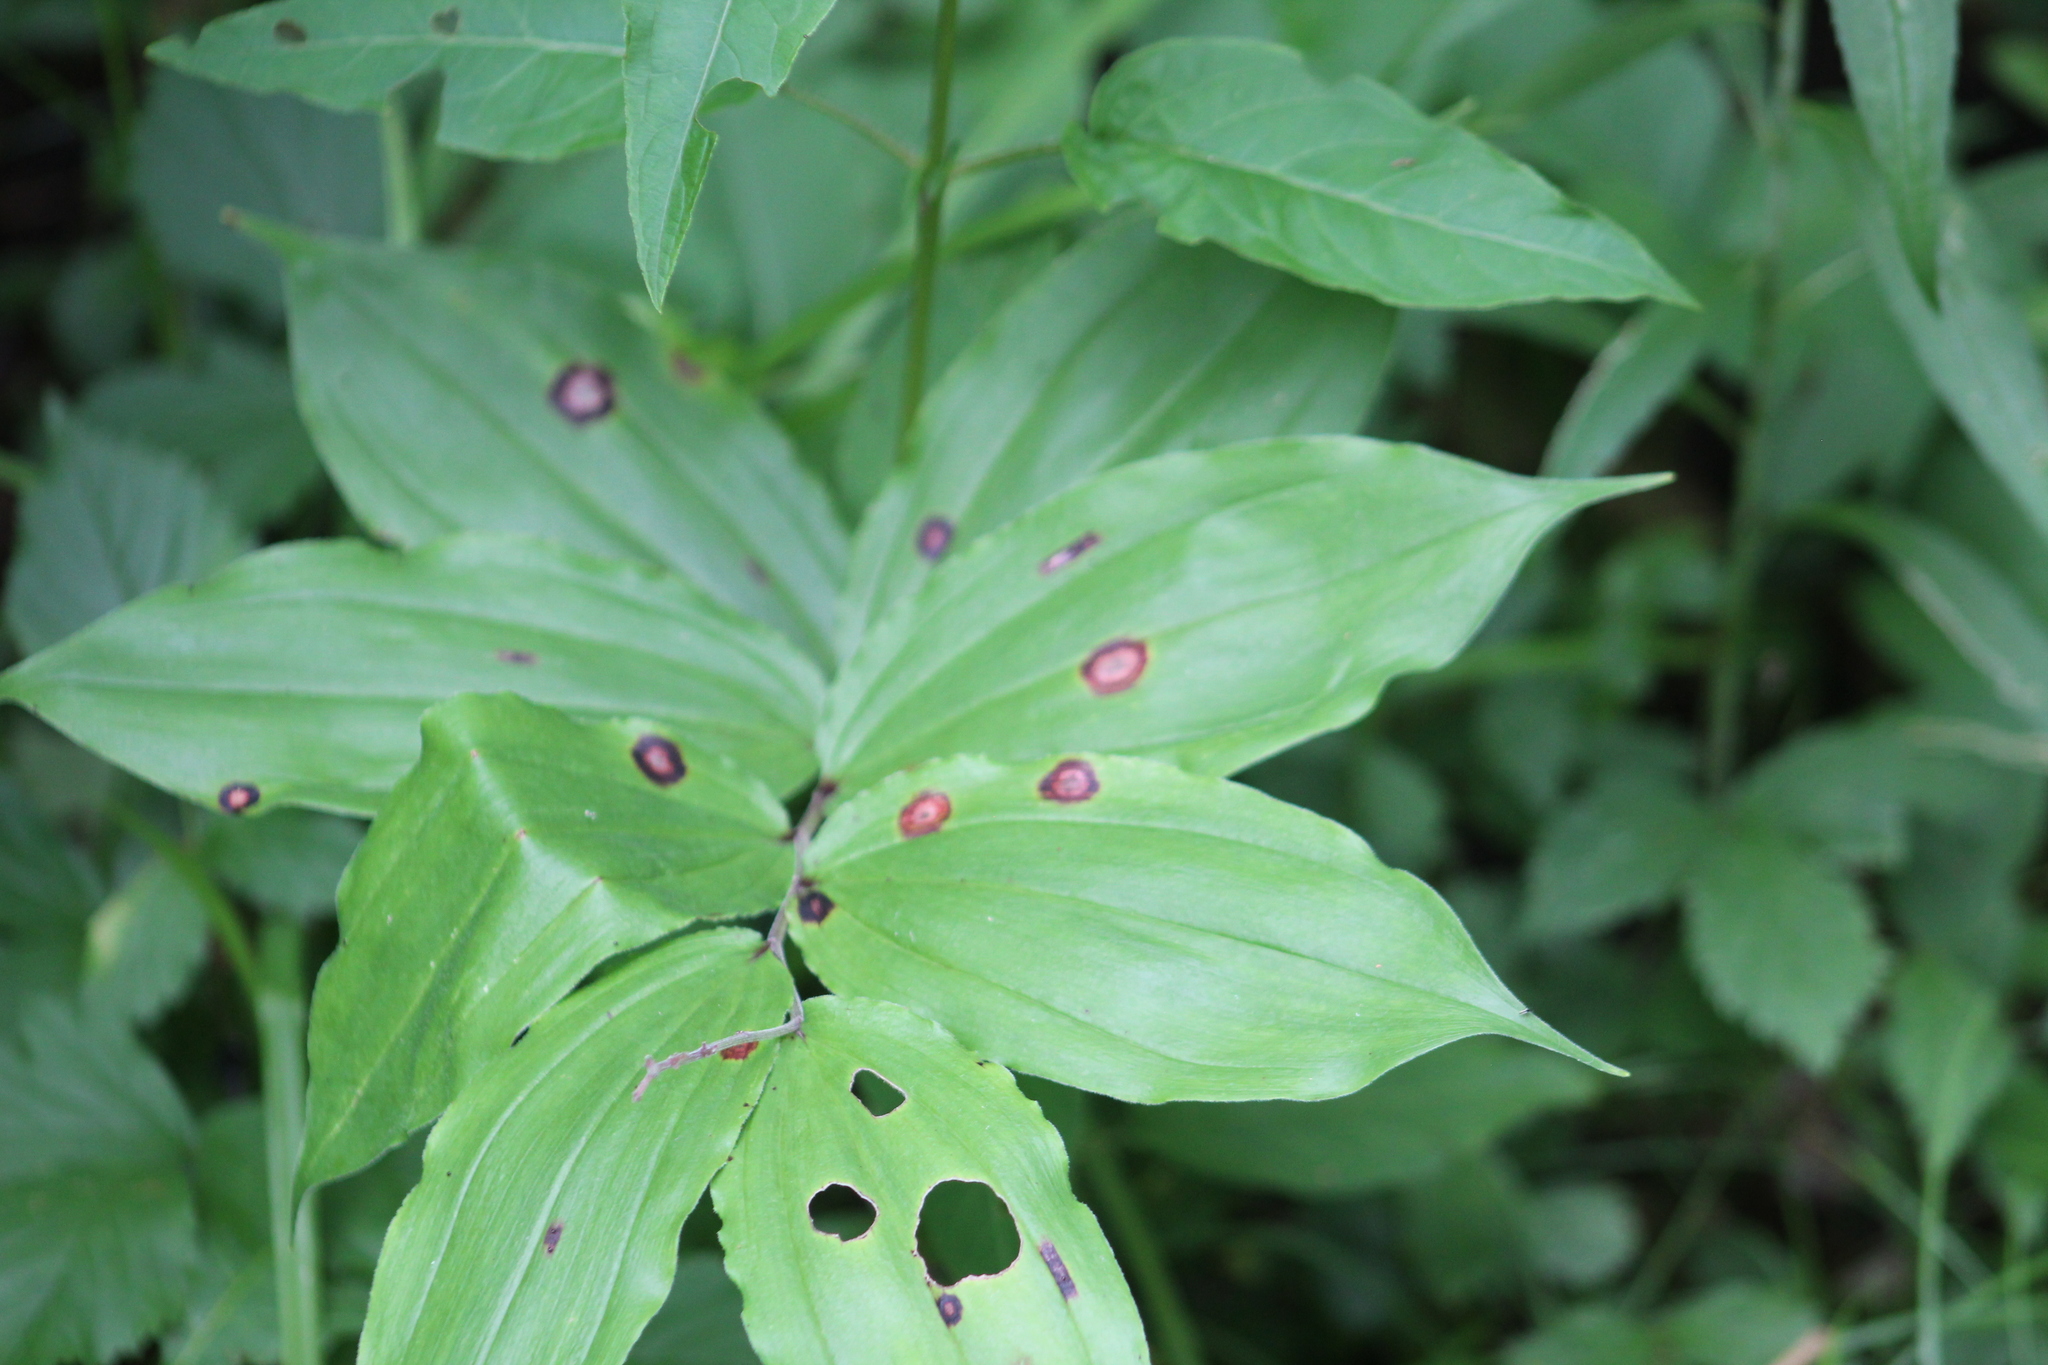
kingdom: Plantae
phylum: Tracheophyta
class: Liliopsida
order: Asparagales
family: Asparagaceae
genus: Maianthemum
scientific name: Maianthemum racemosum
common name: False spikenard
